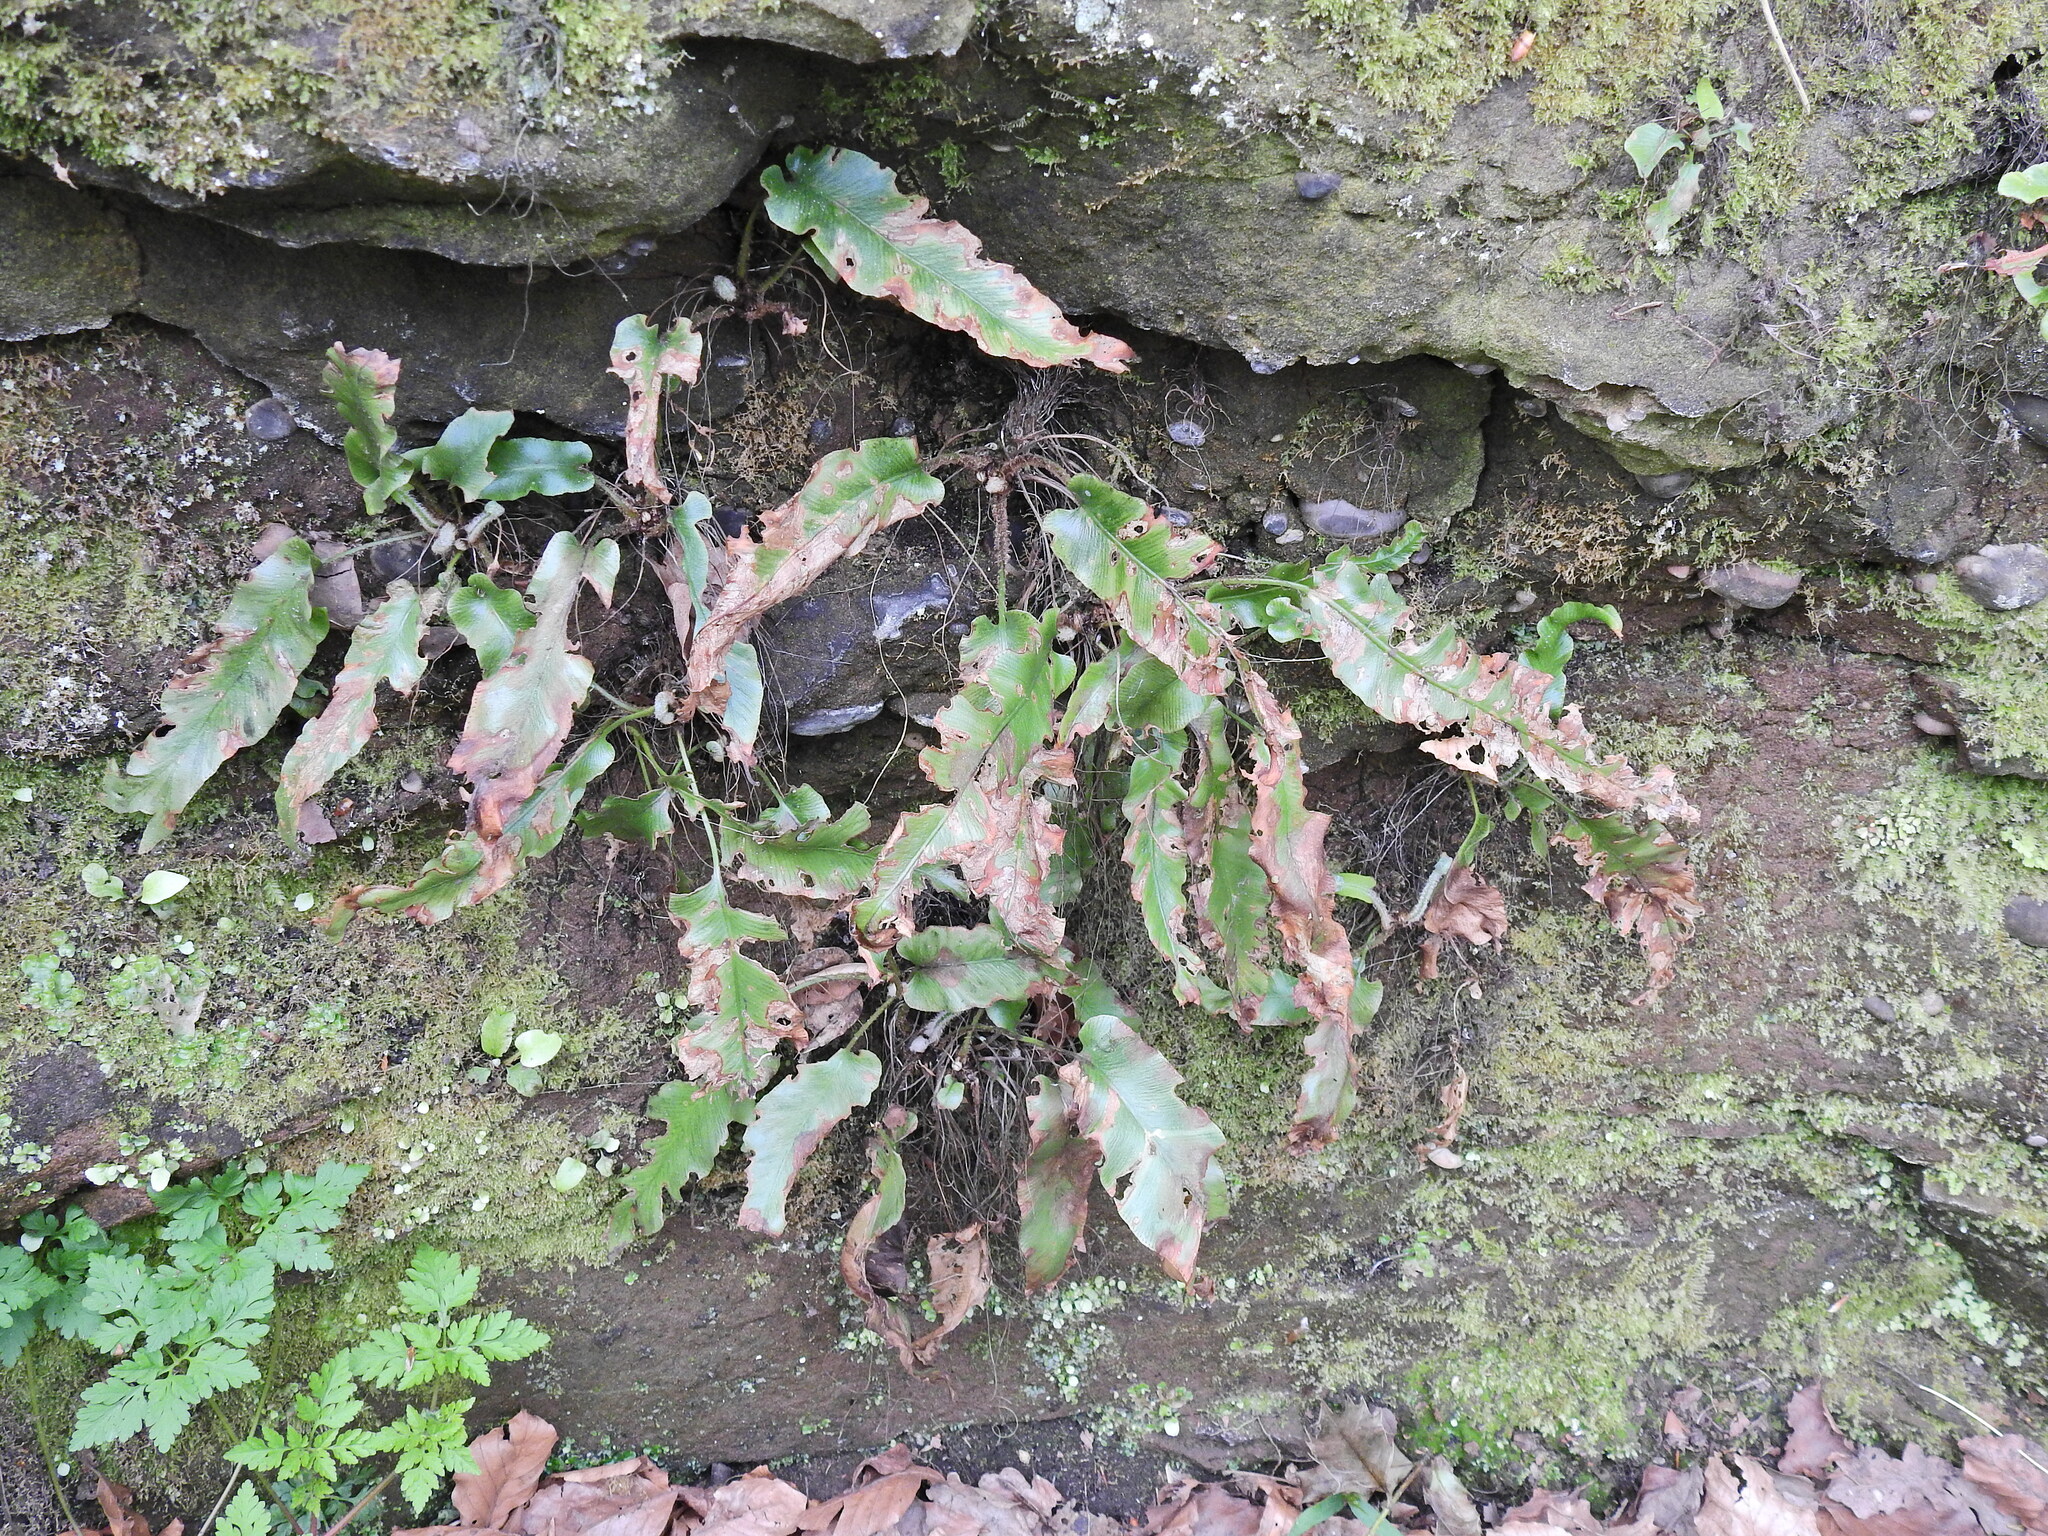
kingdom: Plantae
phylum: Tracheophyta
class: Polypodiopsida
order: Polypodiales
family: Aspleniaceae
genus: Asplenium
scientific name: Asplenium scolopendrium
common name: Hart's-tongue fern
